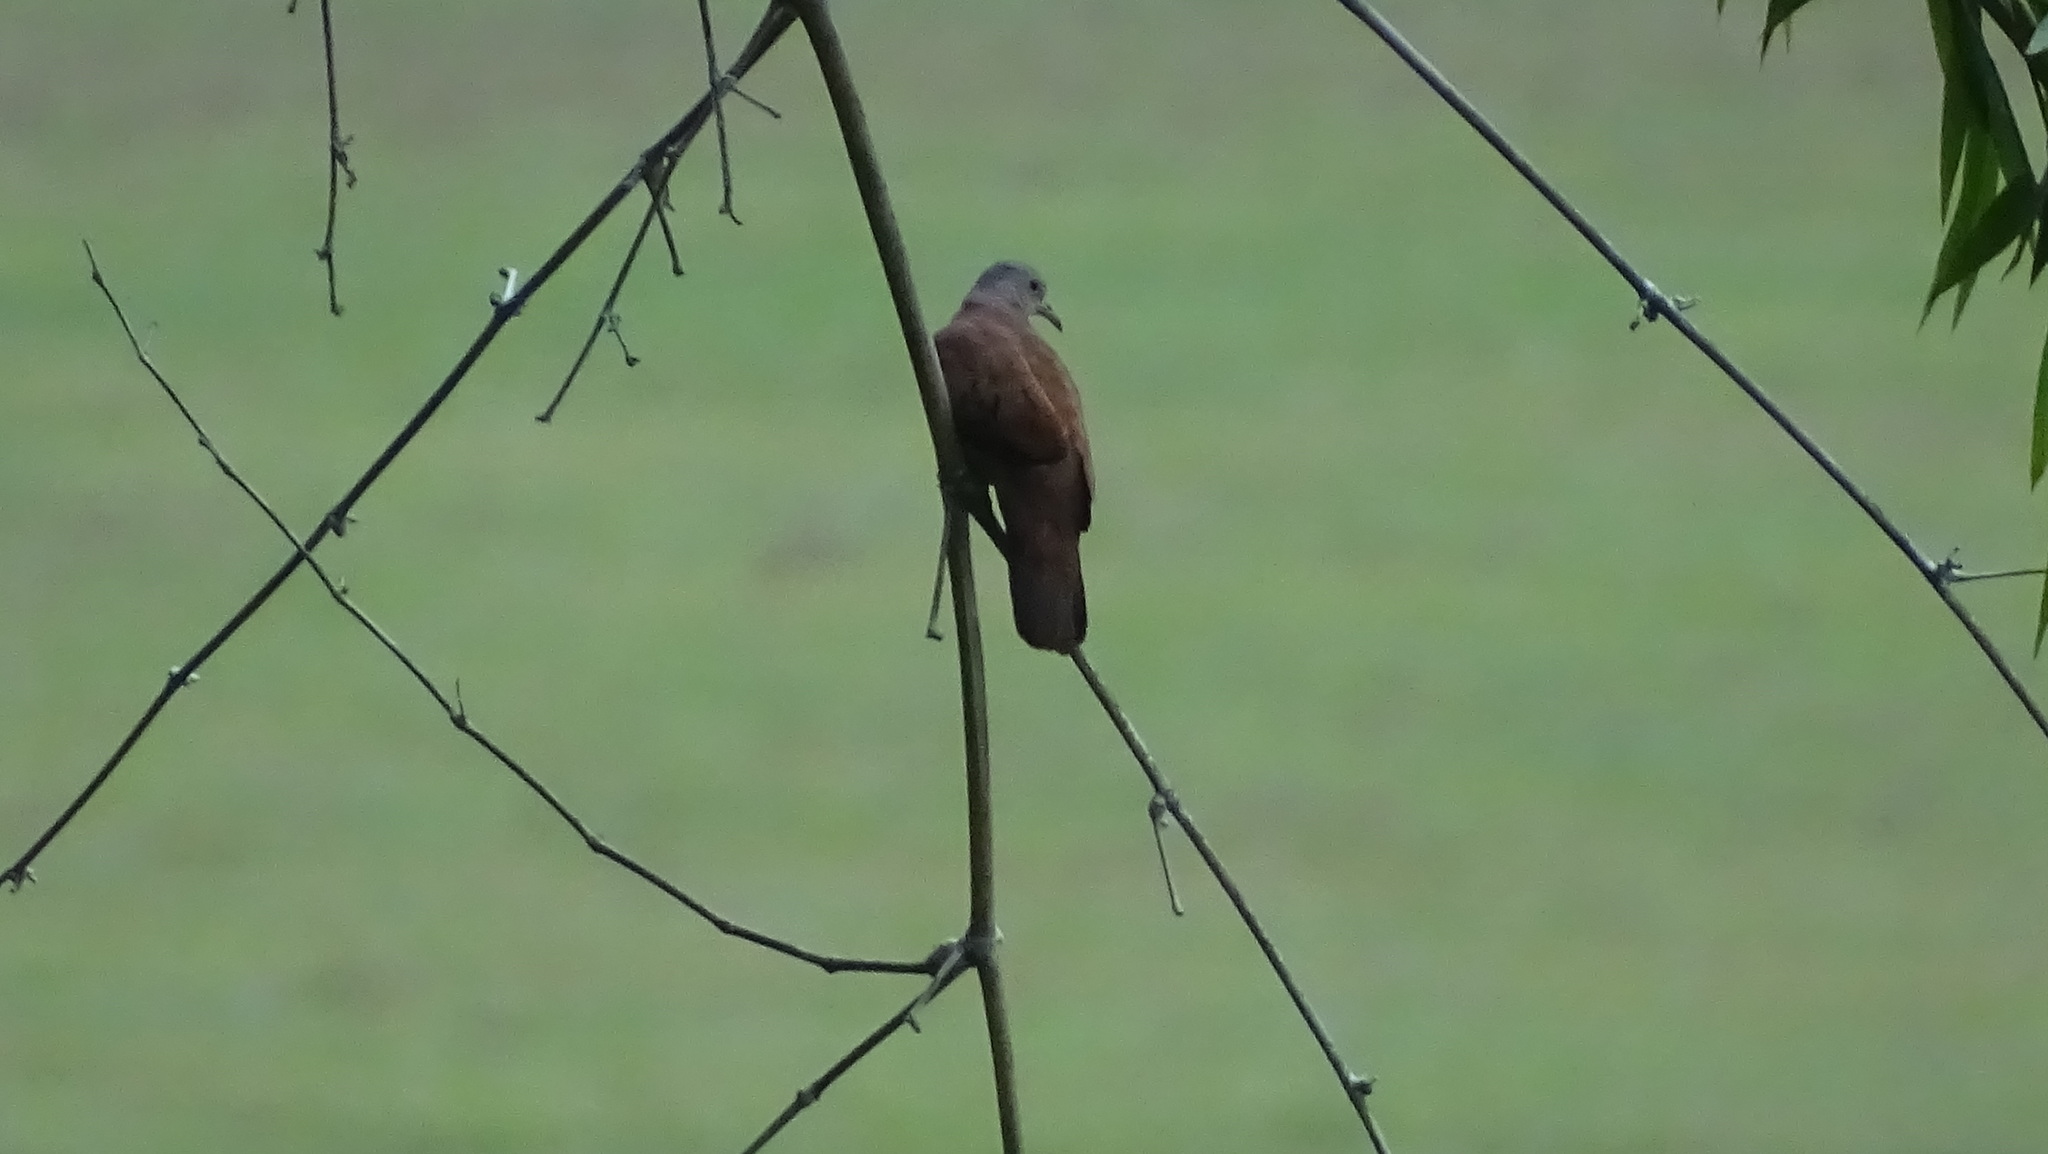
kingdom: Animalia
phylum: Chordata
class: Aves
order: Passeriformes
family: Turdidae
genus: Turdus
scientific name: Turdus grayi
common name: Clay-colored thrush
